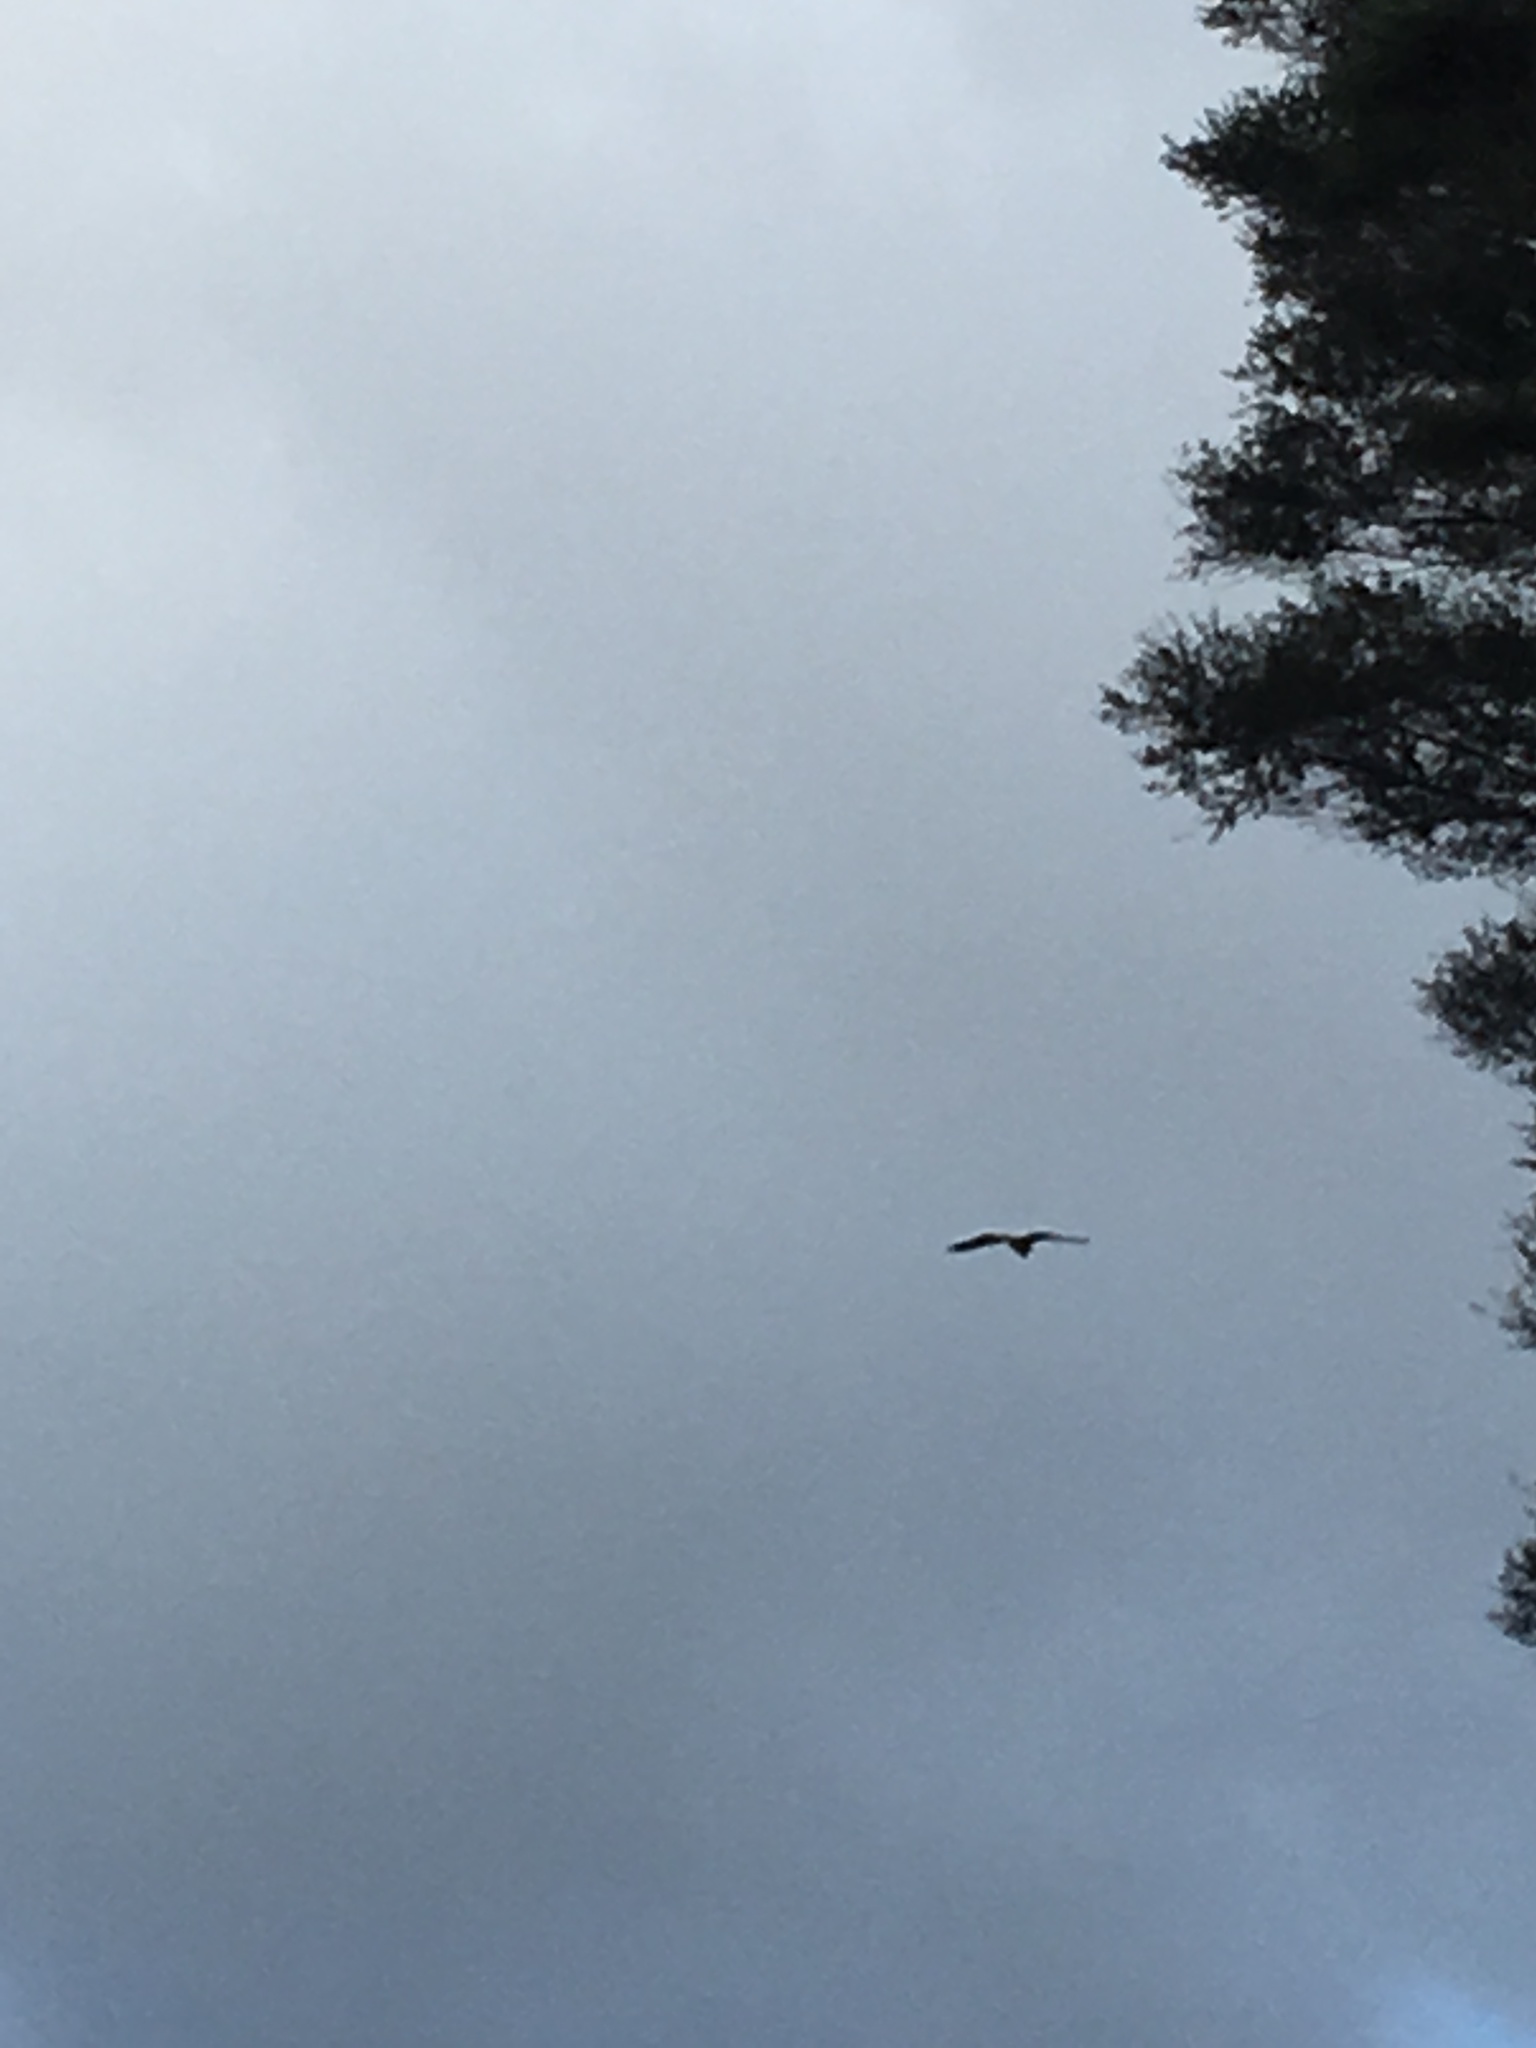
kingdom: Animalia
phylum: Chordata
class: Aves
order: Pelecaniformes
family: Ardeidae
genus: Egretta
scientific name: Egretta novaehollandiae
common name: White-faced heron
